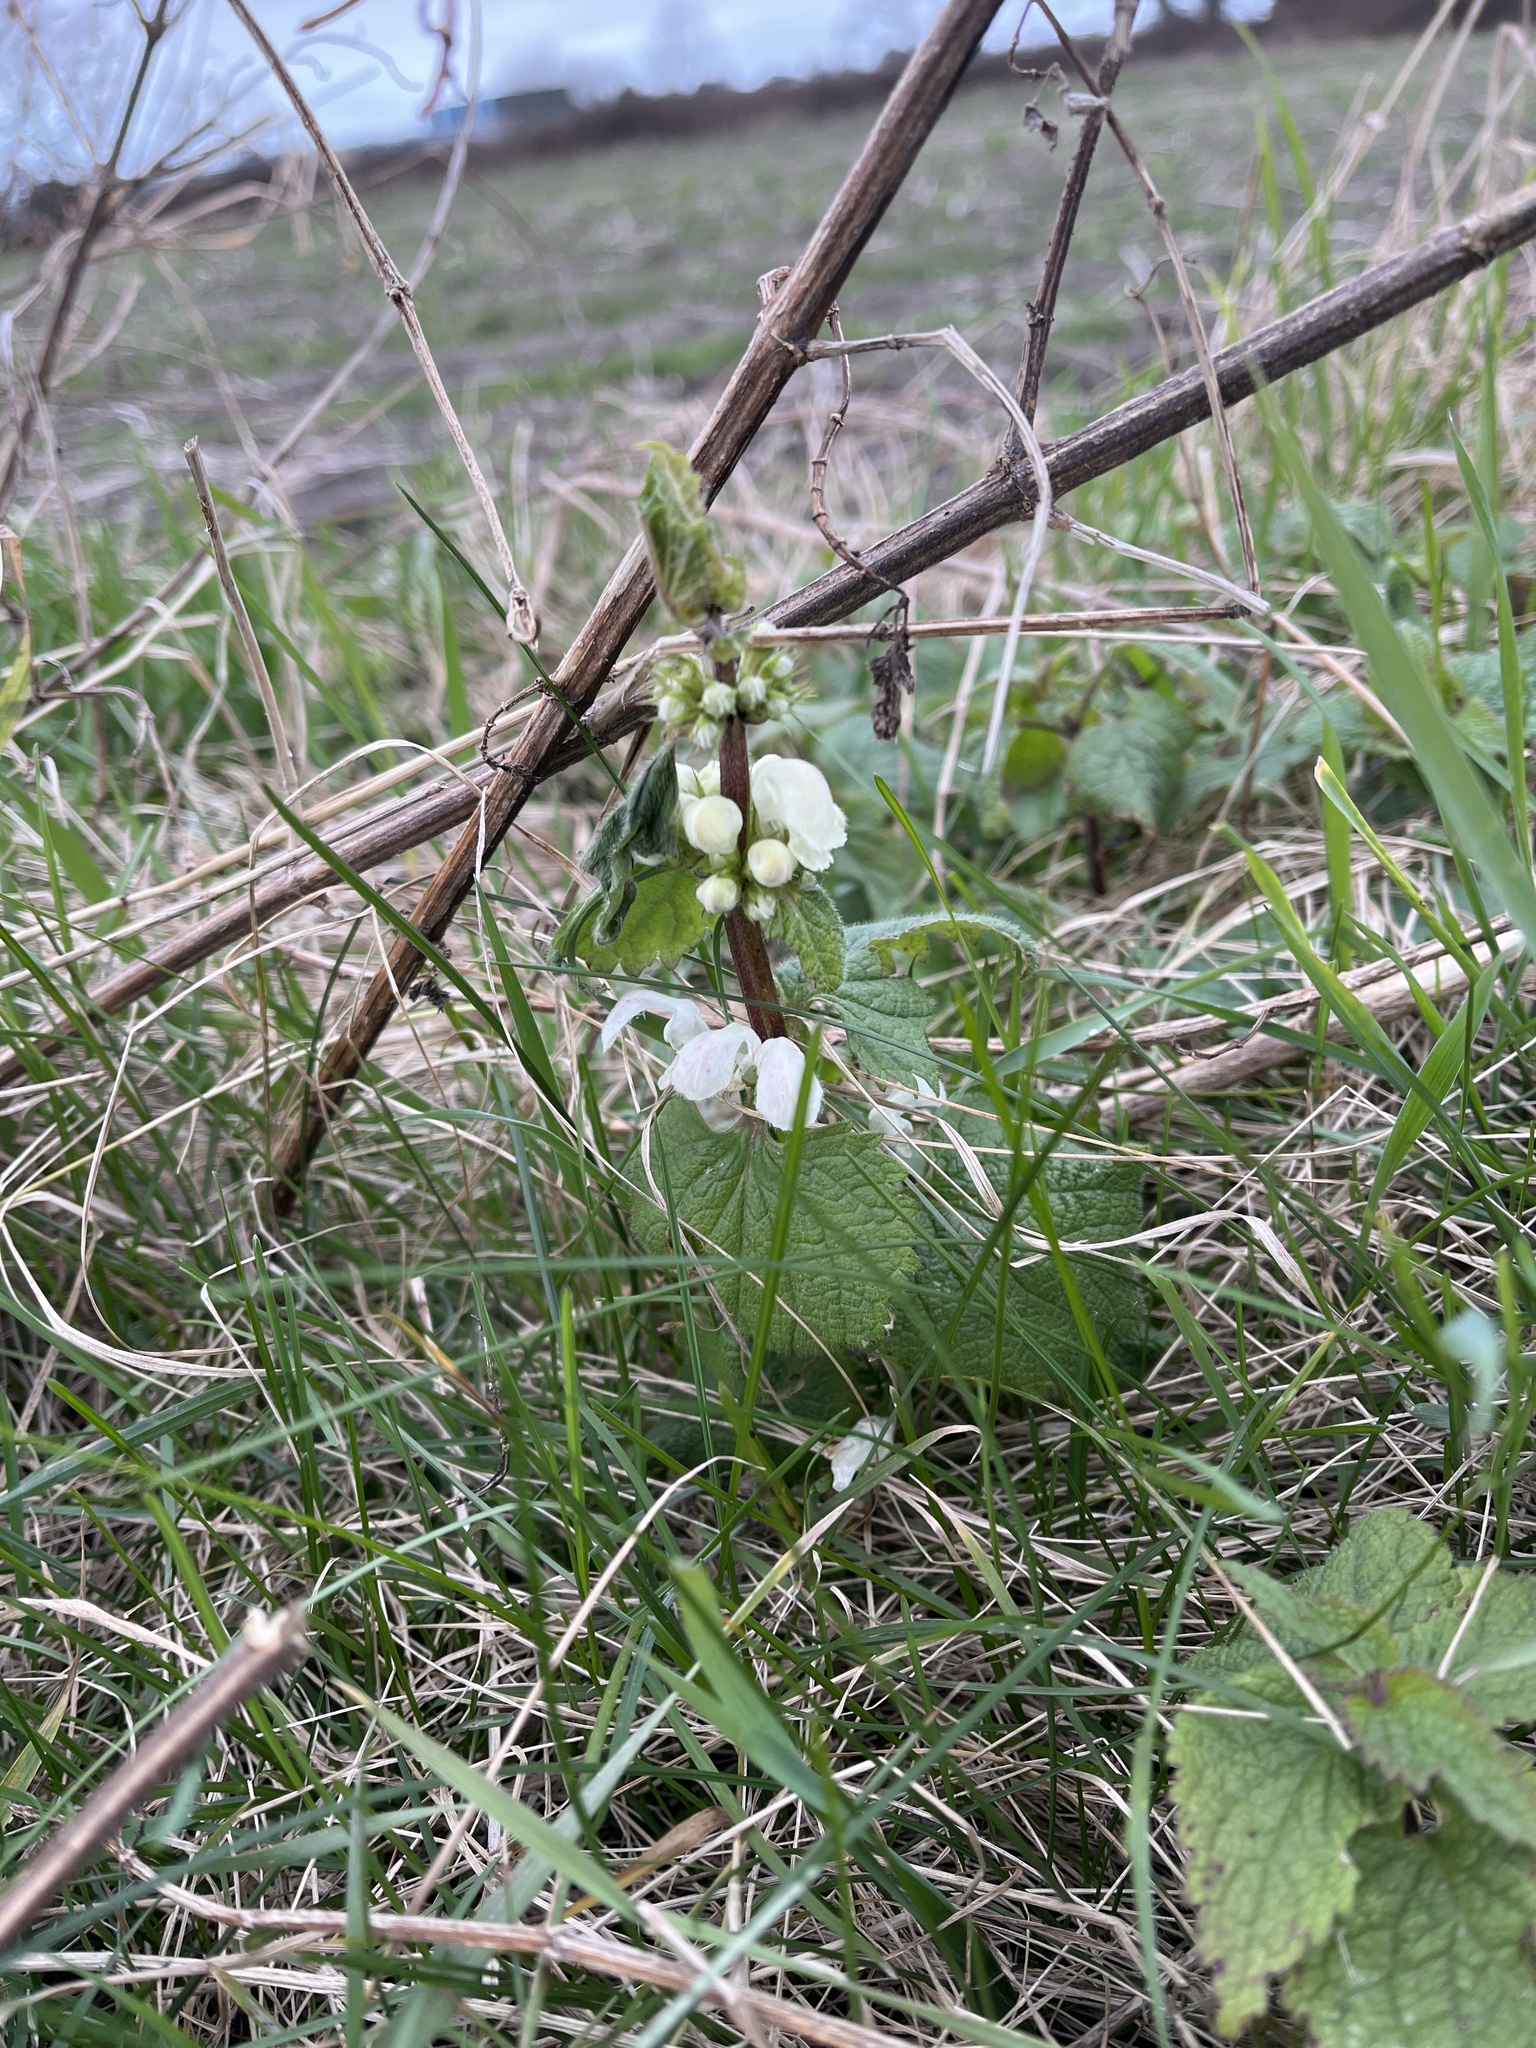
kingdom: Plantae
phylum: Tracheophyta
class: Magnoliopsida
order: Lamiales
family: Lamiaceae
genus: Lamium
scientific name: Lamium album
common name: White dead-nettle
